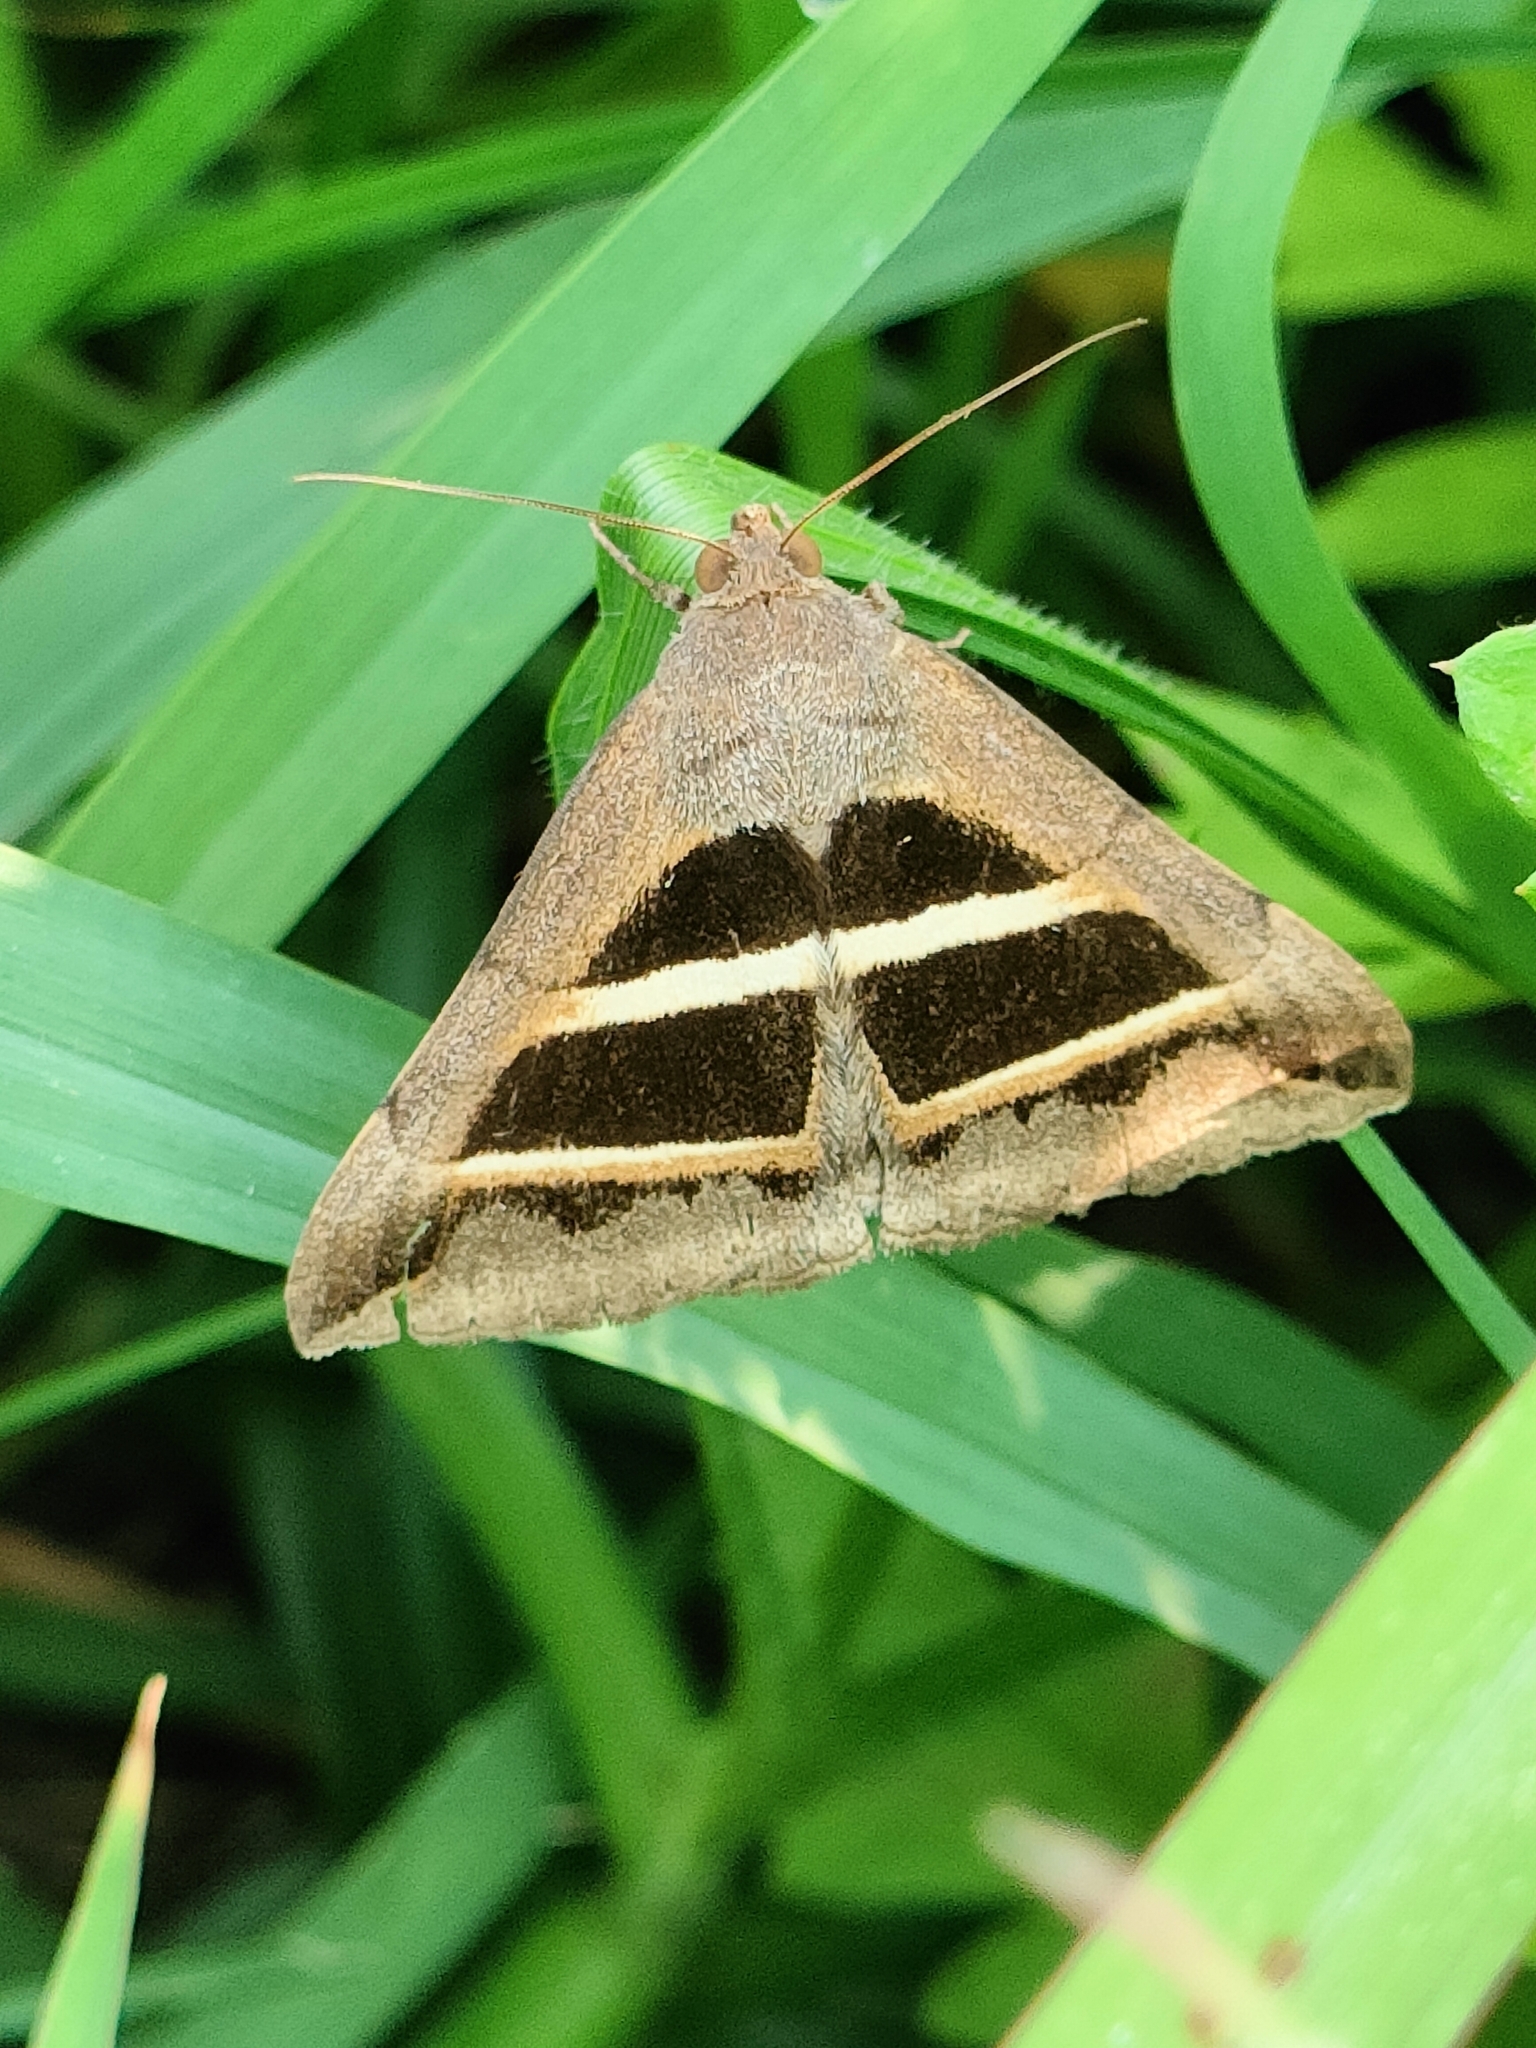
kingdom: Animalia
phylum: Arthropoda
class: Insecta
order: Lepidoptera
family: Erebidae
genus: Grammodes
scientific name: Grammodes bifasciata
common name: Parallel lines
